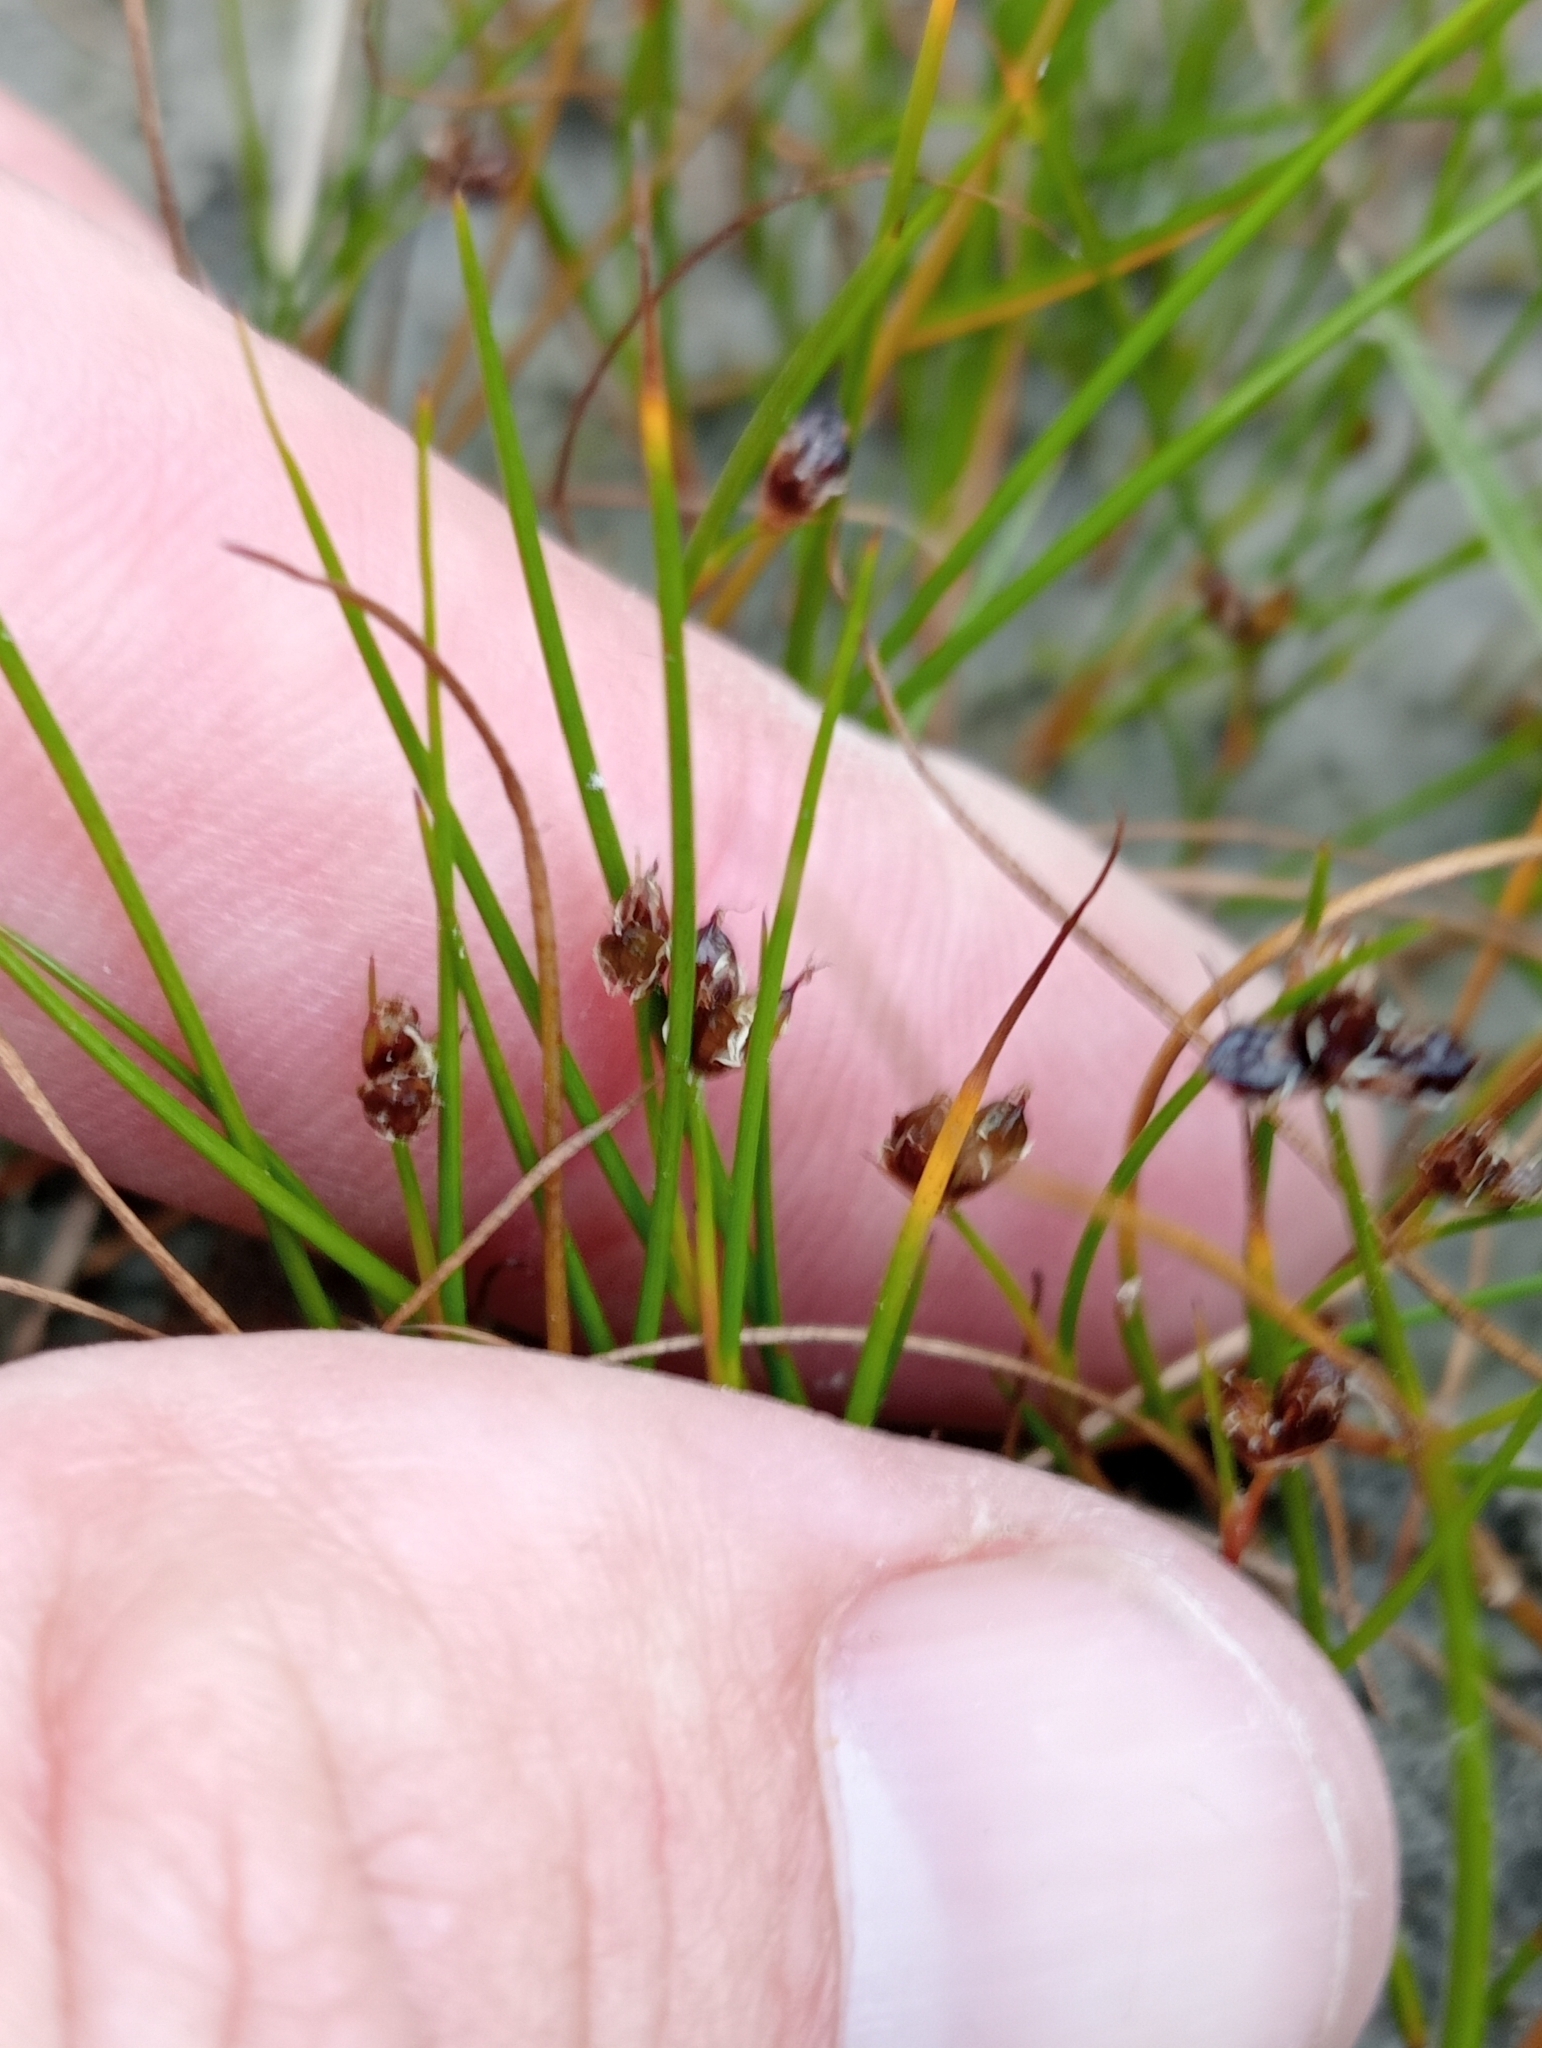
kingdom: Plantae
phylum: Tracheophyta
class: Liliopsida
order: Poales
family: Juncaceae
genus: Juncus
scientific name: Juncus novae-zelandiae
